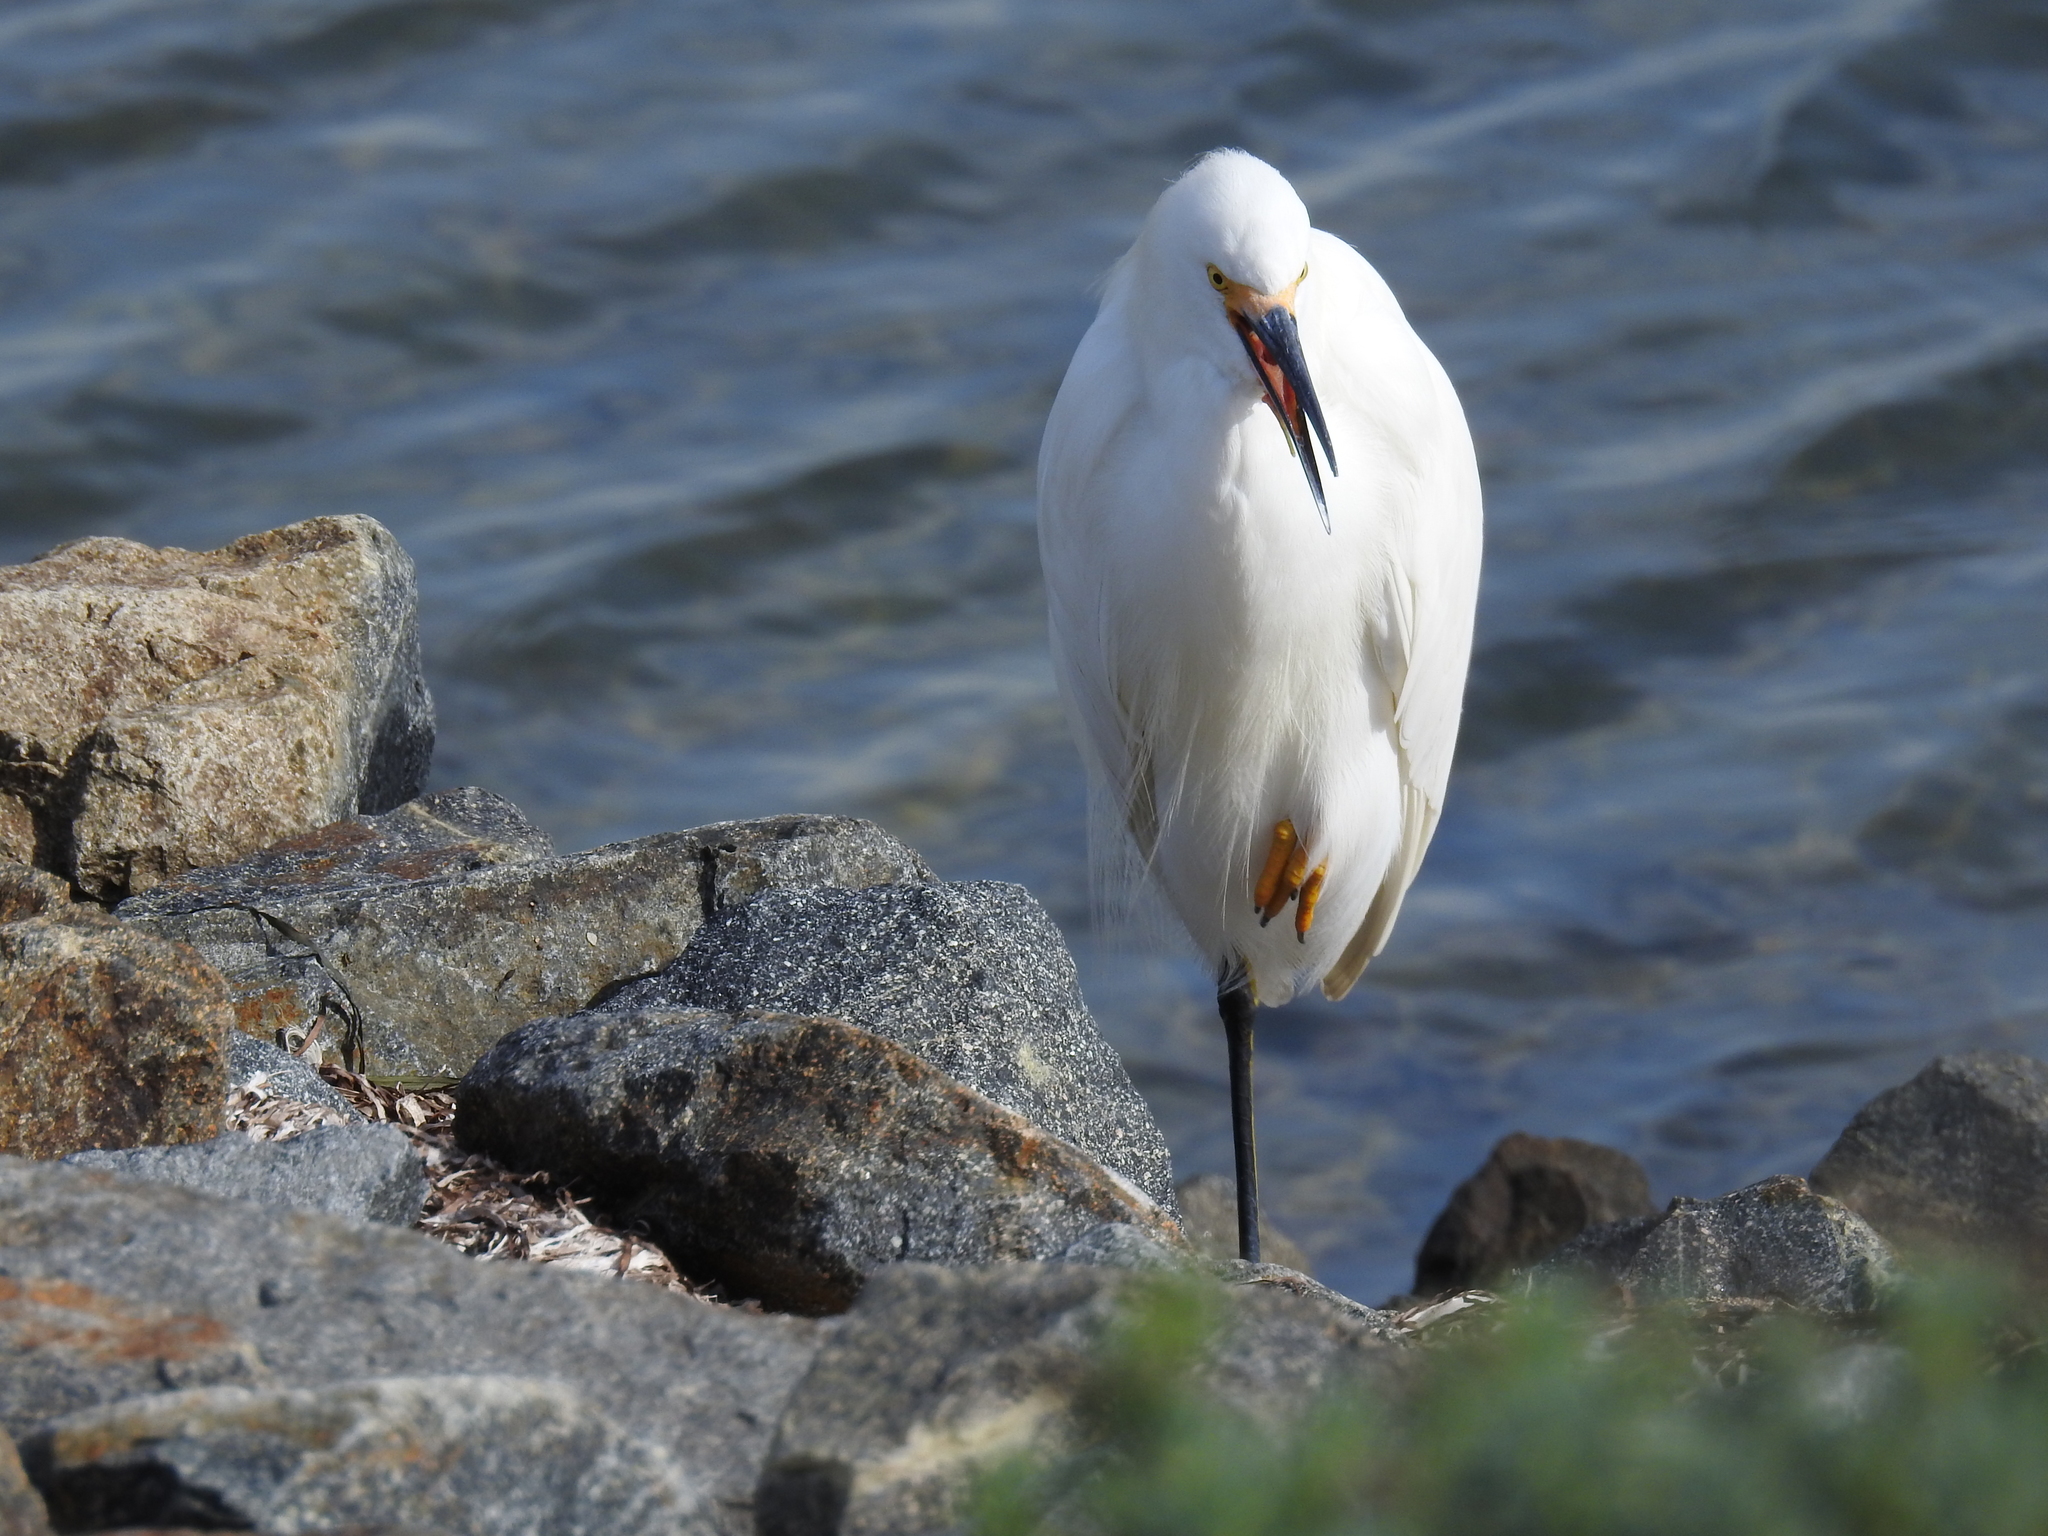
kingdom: Animalia
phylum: Chordata
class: Aves
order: Pelecaniformes
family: Ardeidae
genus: Egretta
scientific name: Egretta thula
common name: Snowy egret
